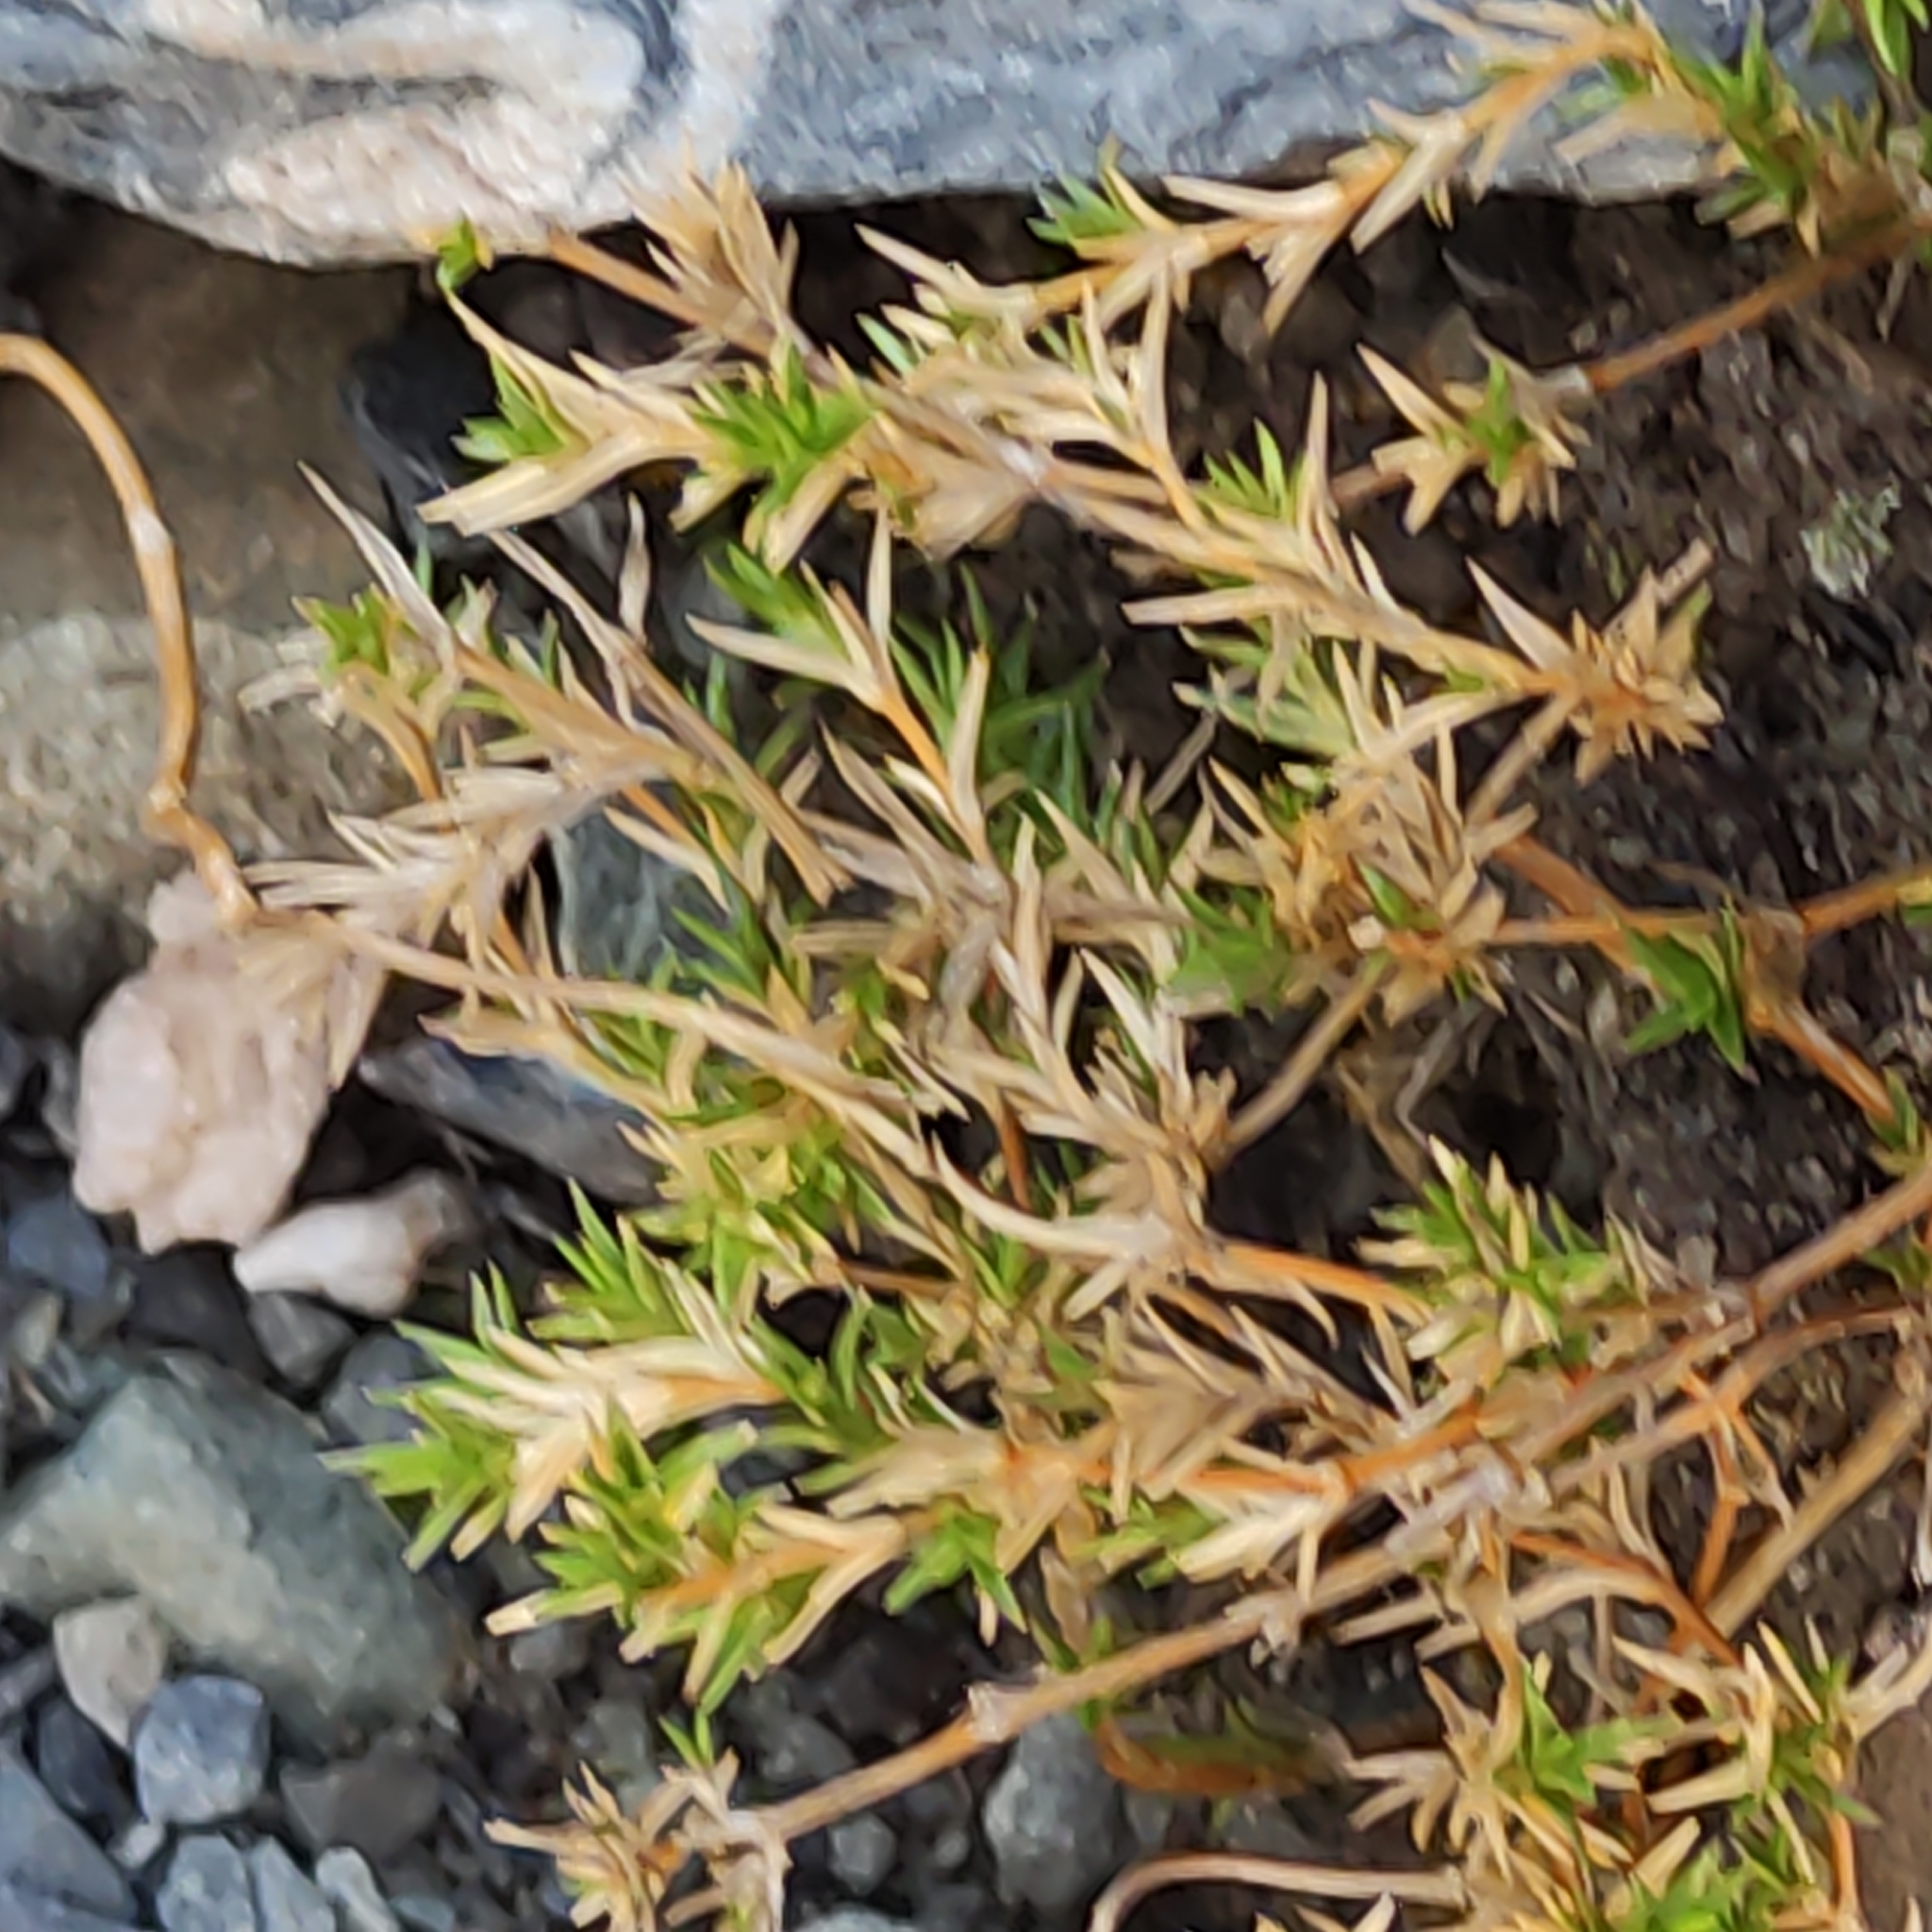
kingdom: Plantae
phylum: Tracheophyta
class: Magnoliopsida
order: Caryophyllales
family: Caryophyllaceae
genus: Stellaria
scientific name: Stellaria gracilenta
